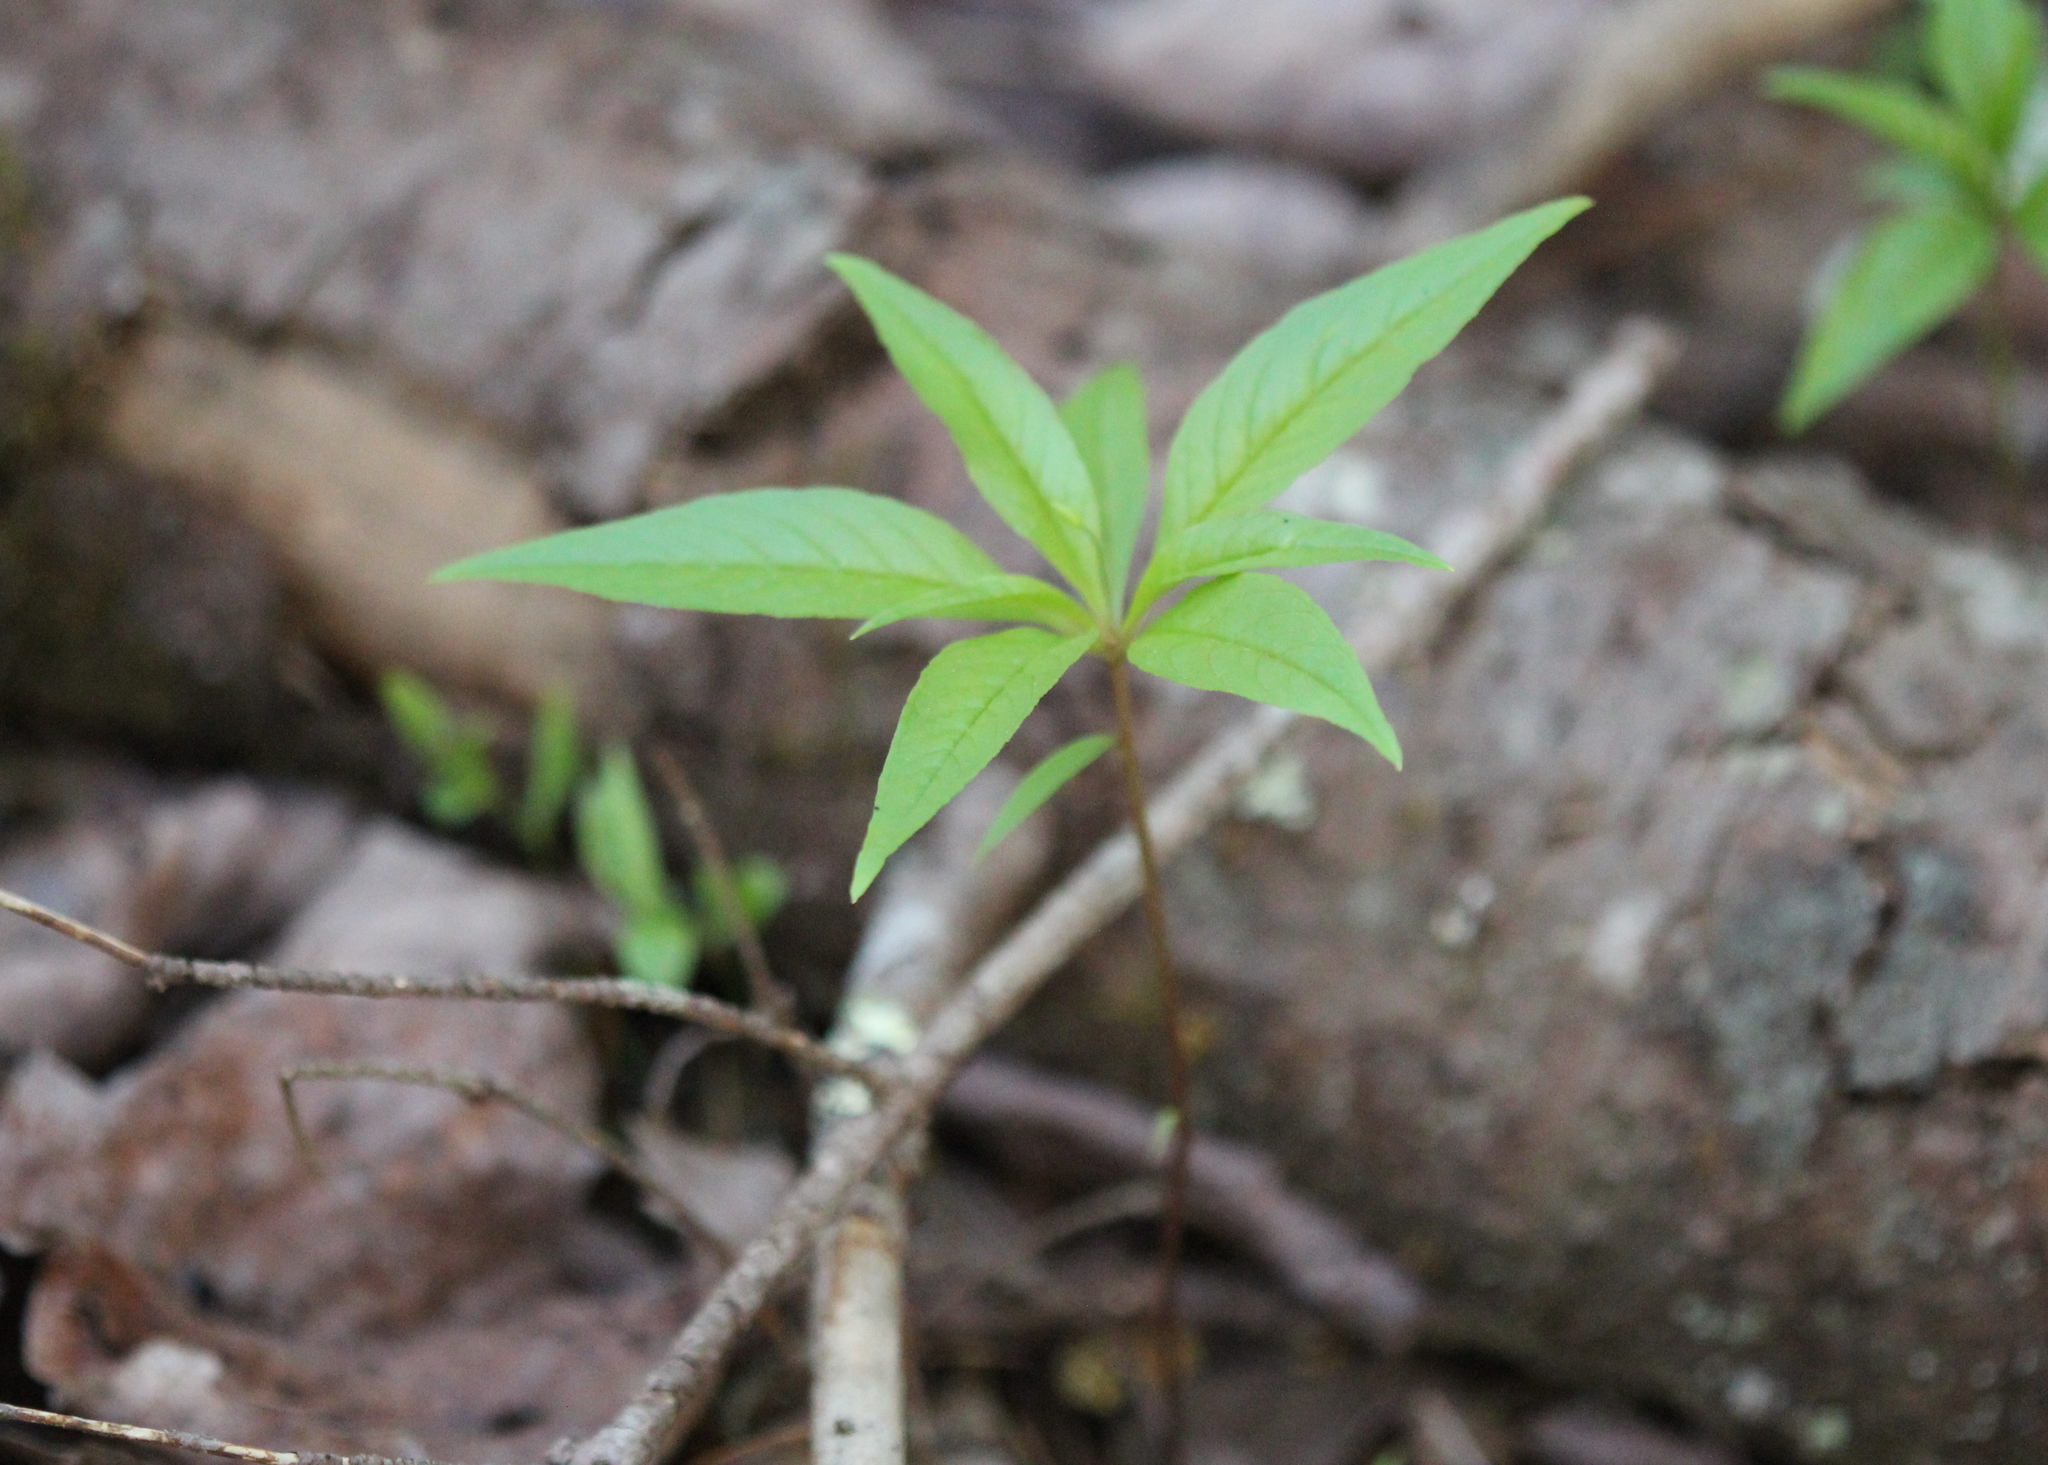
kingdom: Plantae
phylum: Tracheophyta
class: Magnoliopsida
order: Ericales
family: Primulaceae
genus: Lysimachia
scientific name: Lysimachia borealis
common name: American starflower
